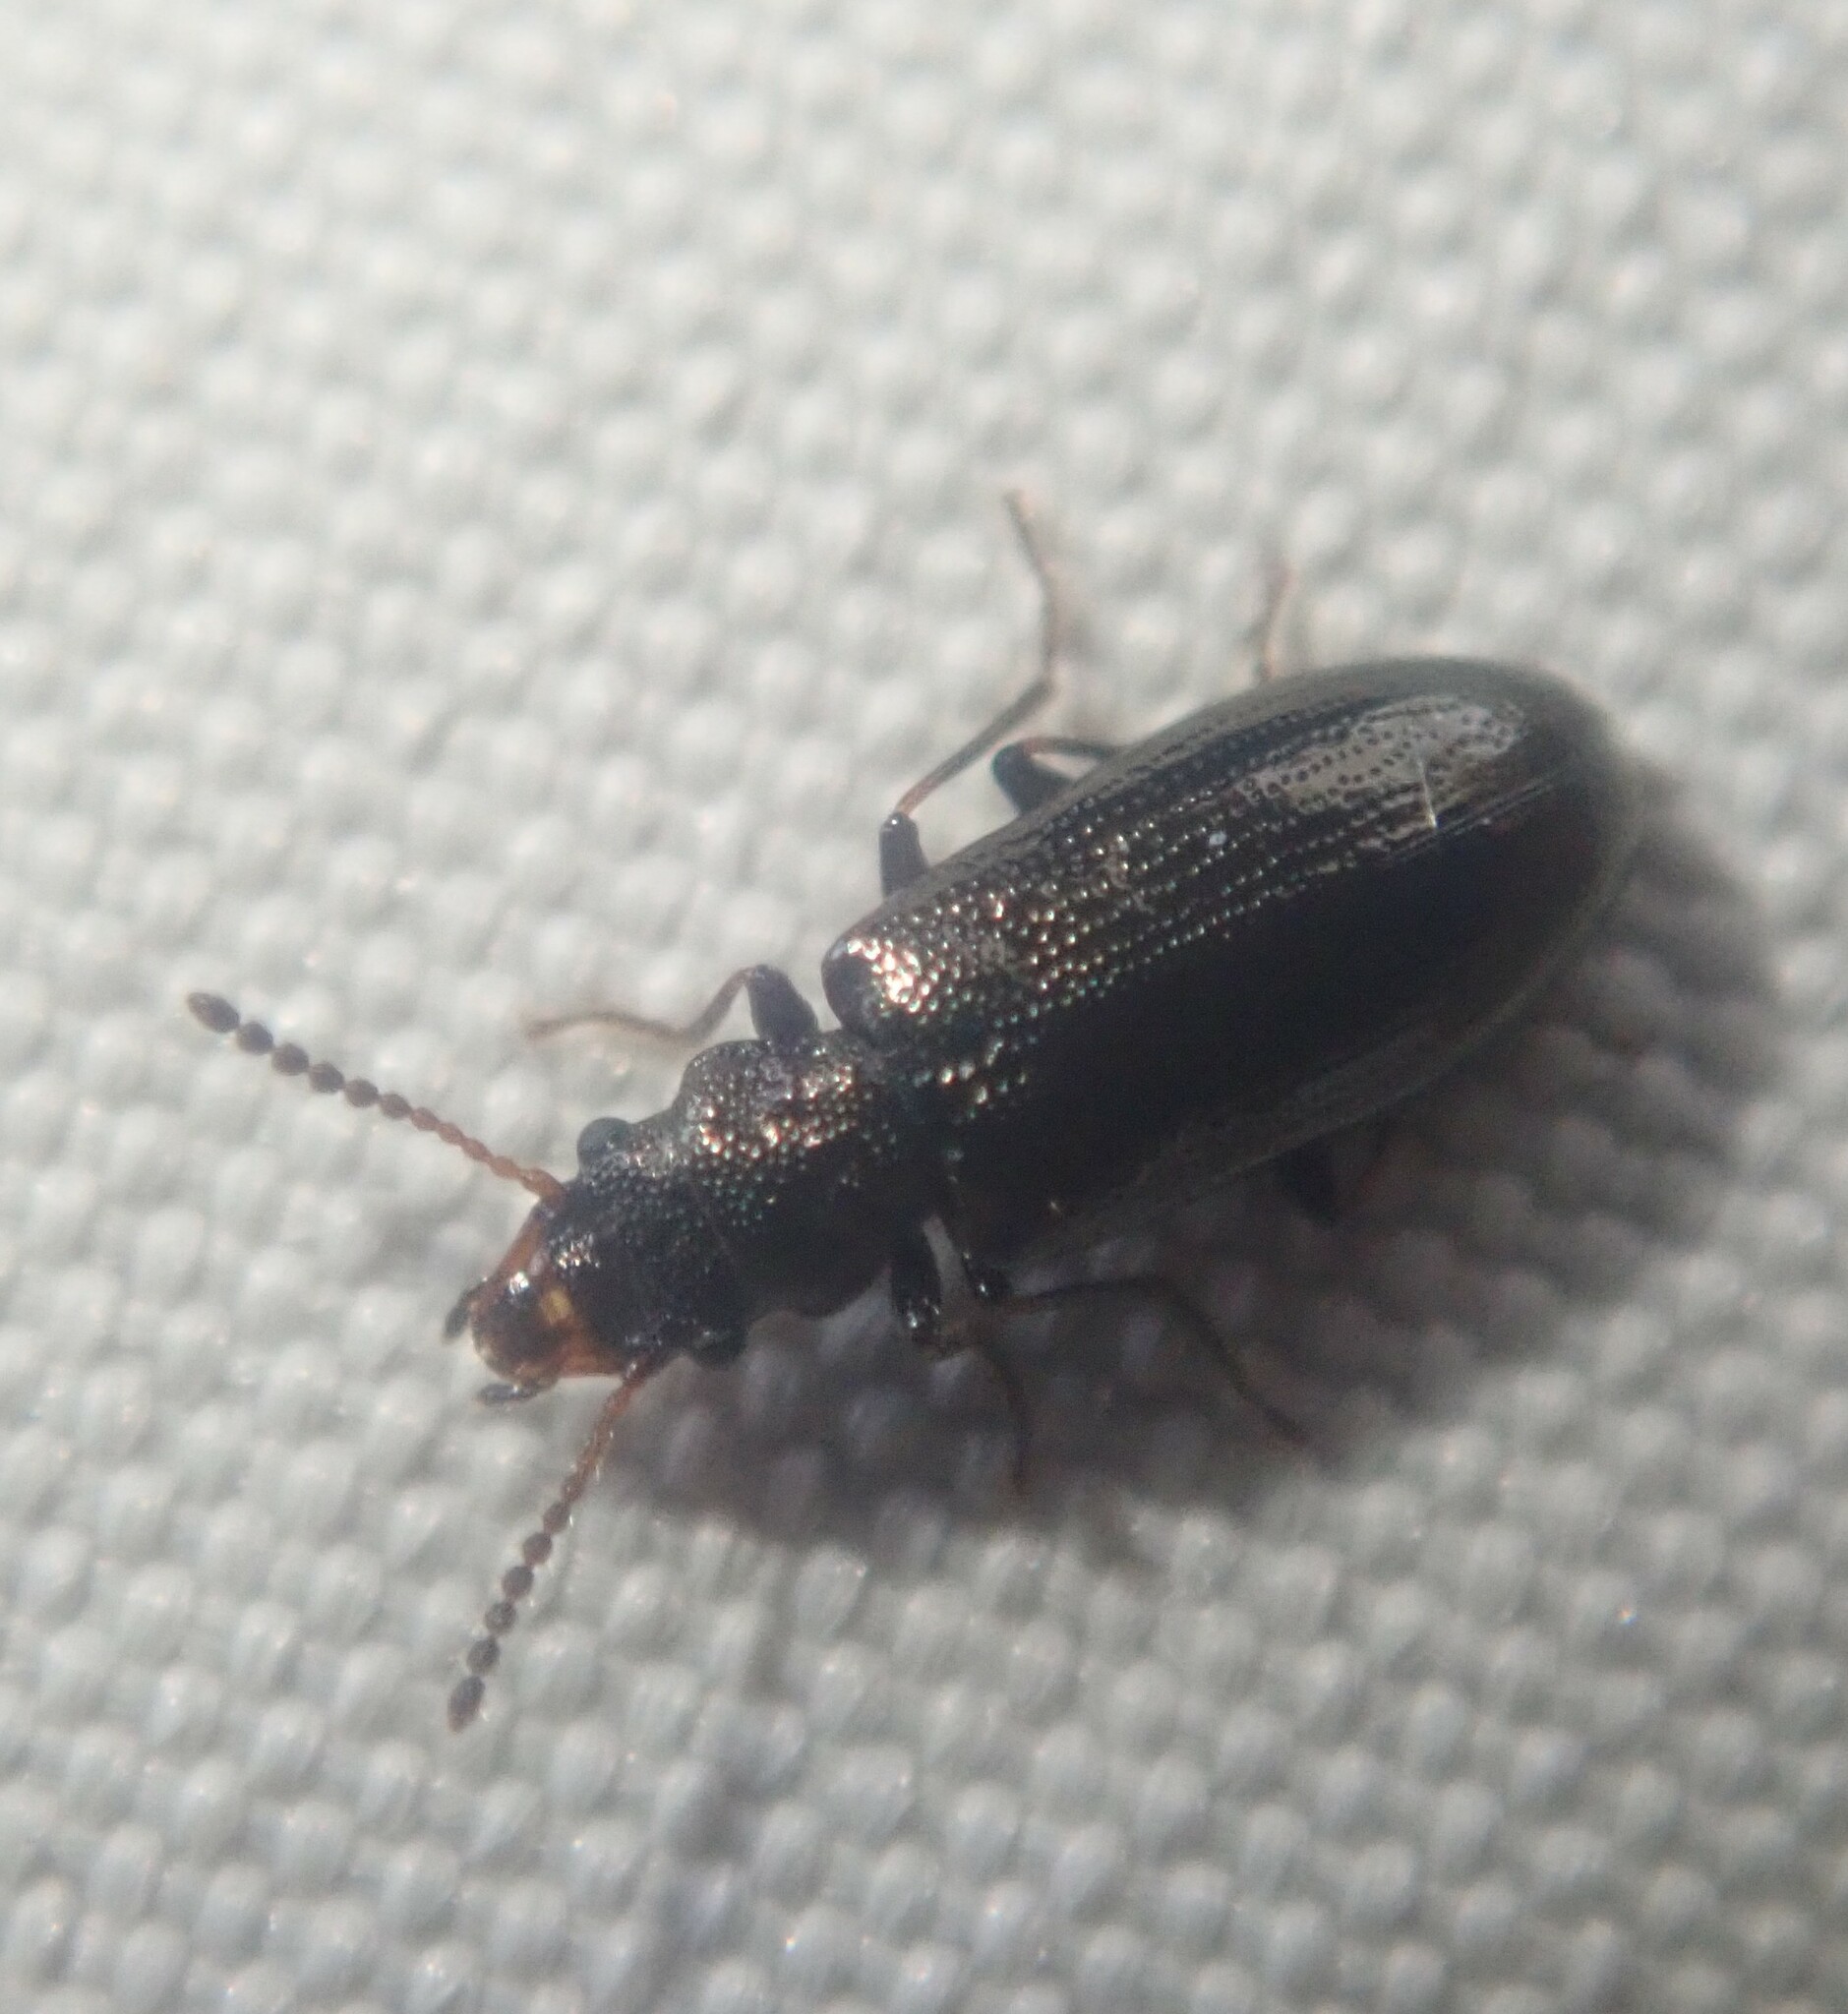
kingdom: Animalia
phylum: Arthropoda
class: Insecta
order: Coleoptera
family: Salpingidae
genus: Rabocerus
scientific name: Rabocerus gabrieli
